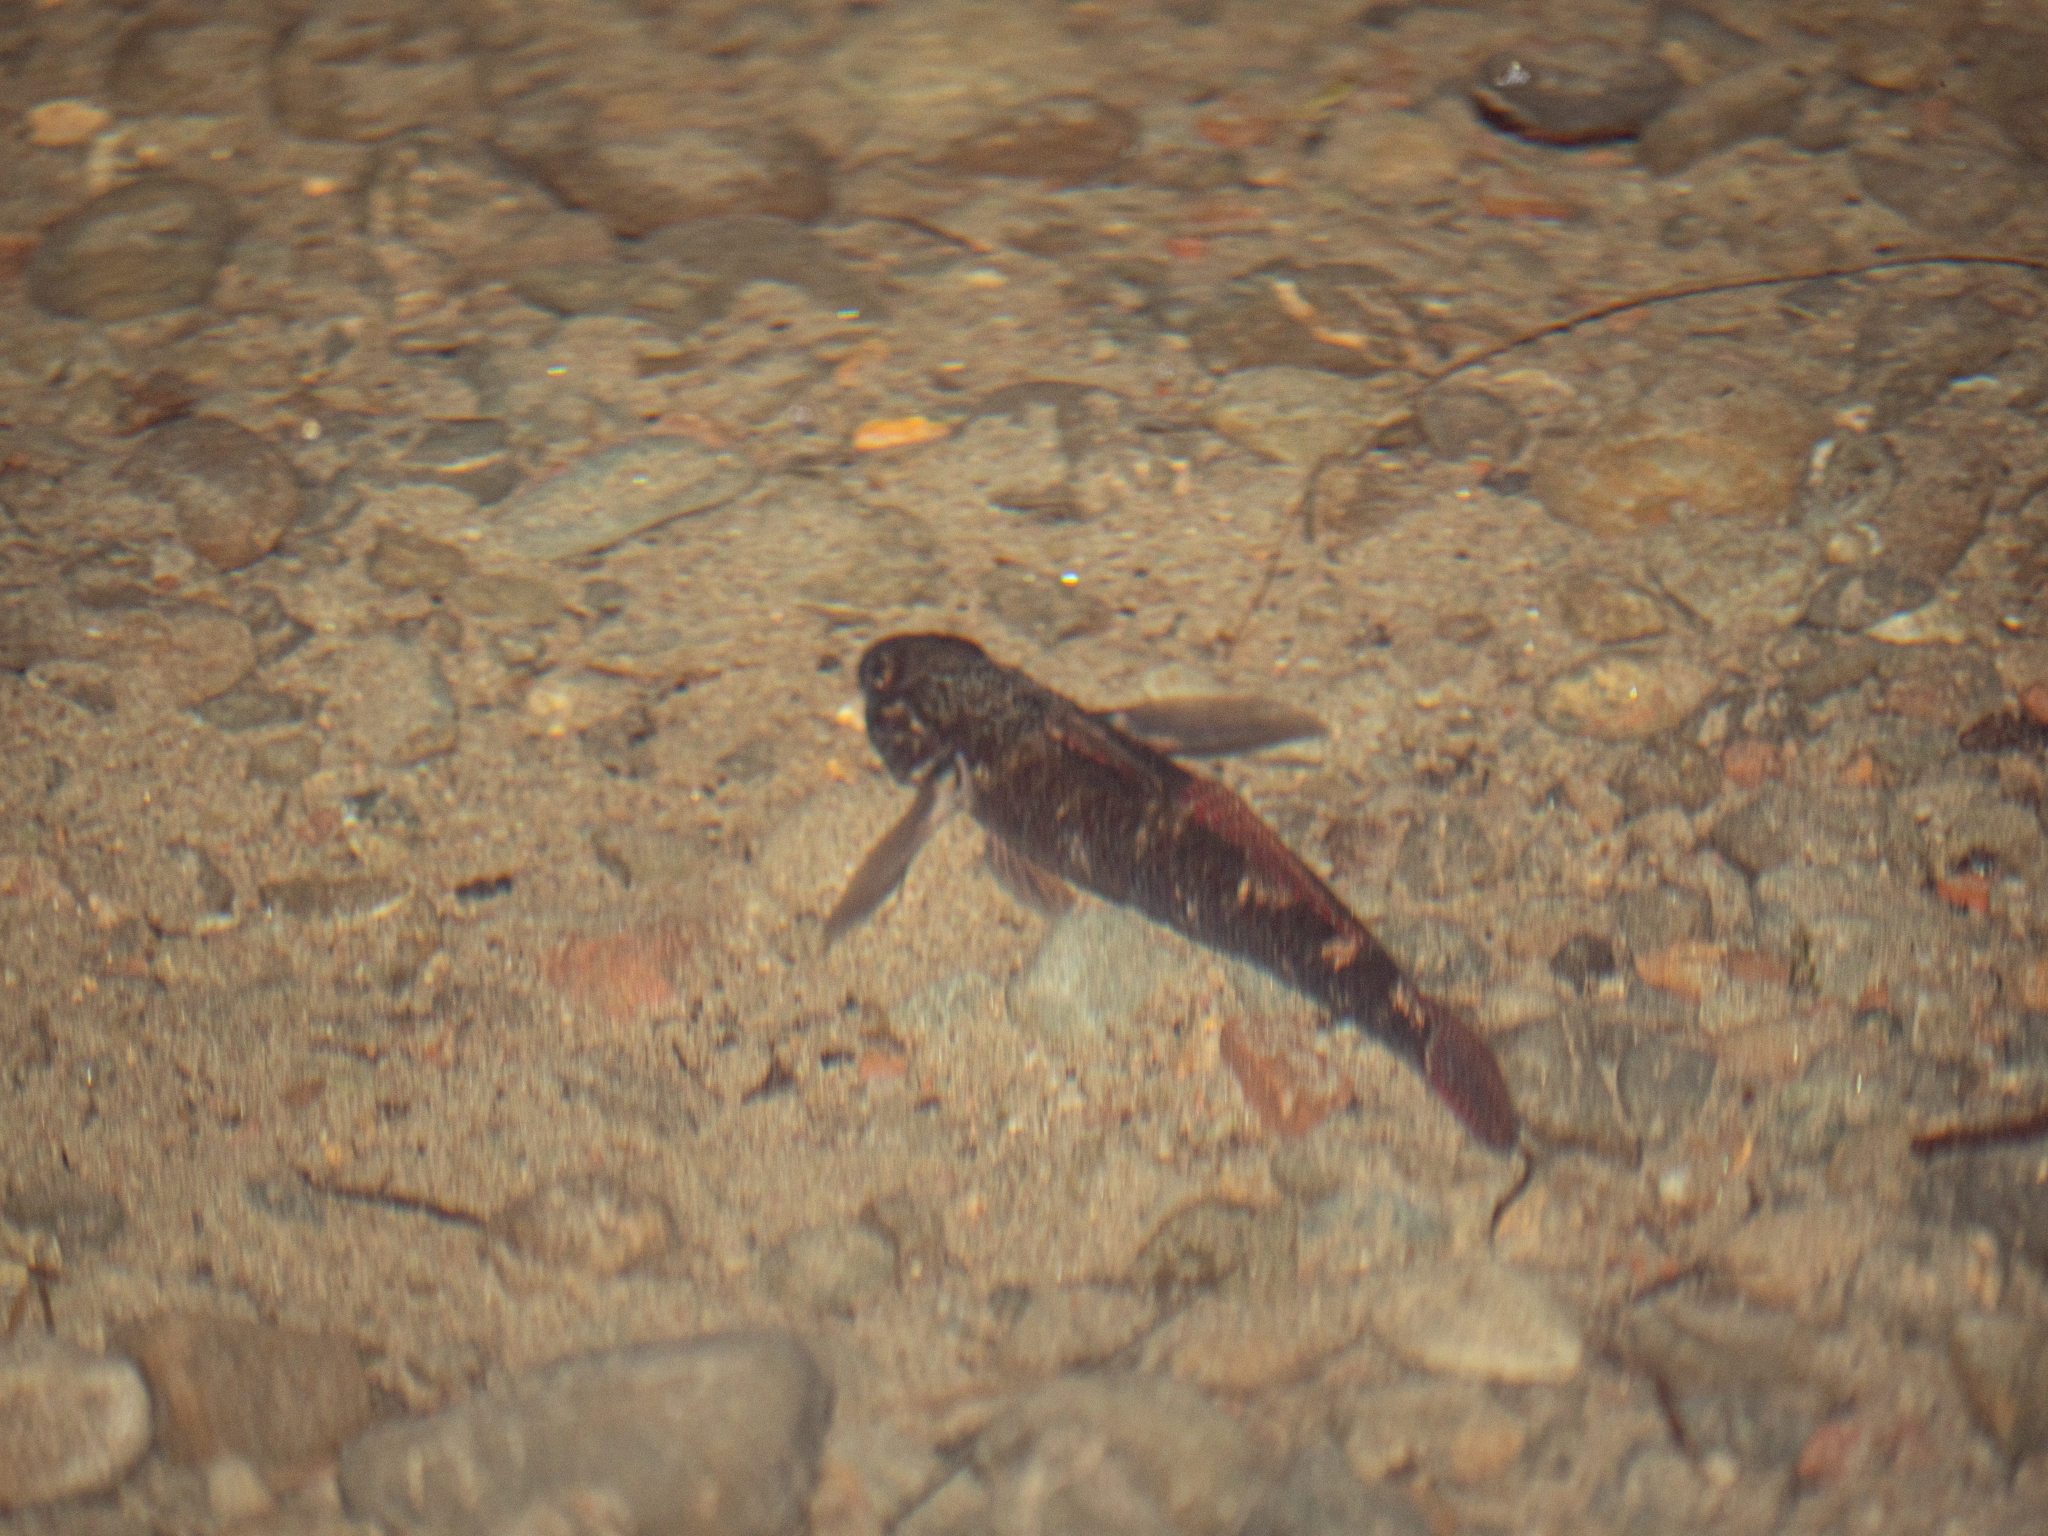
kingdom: Animalia
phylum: Chordata
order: Perciformes
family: Eleotridae
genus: Gobiomorphus
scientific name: Gobiomorphus huttoni
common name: Redfin bully
